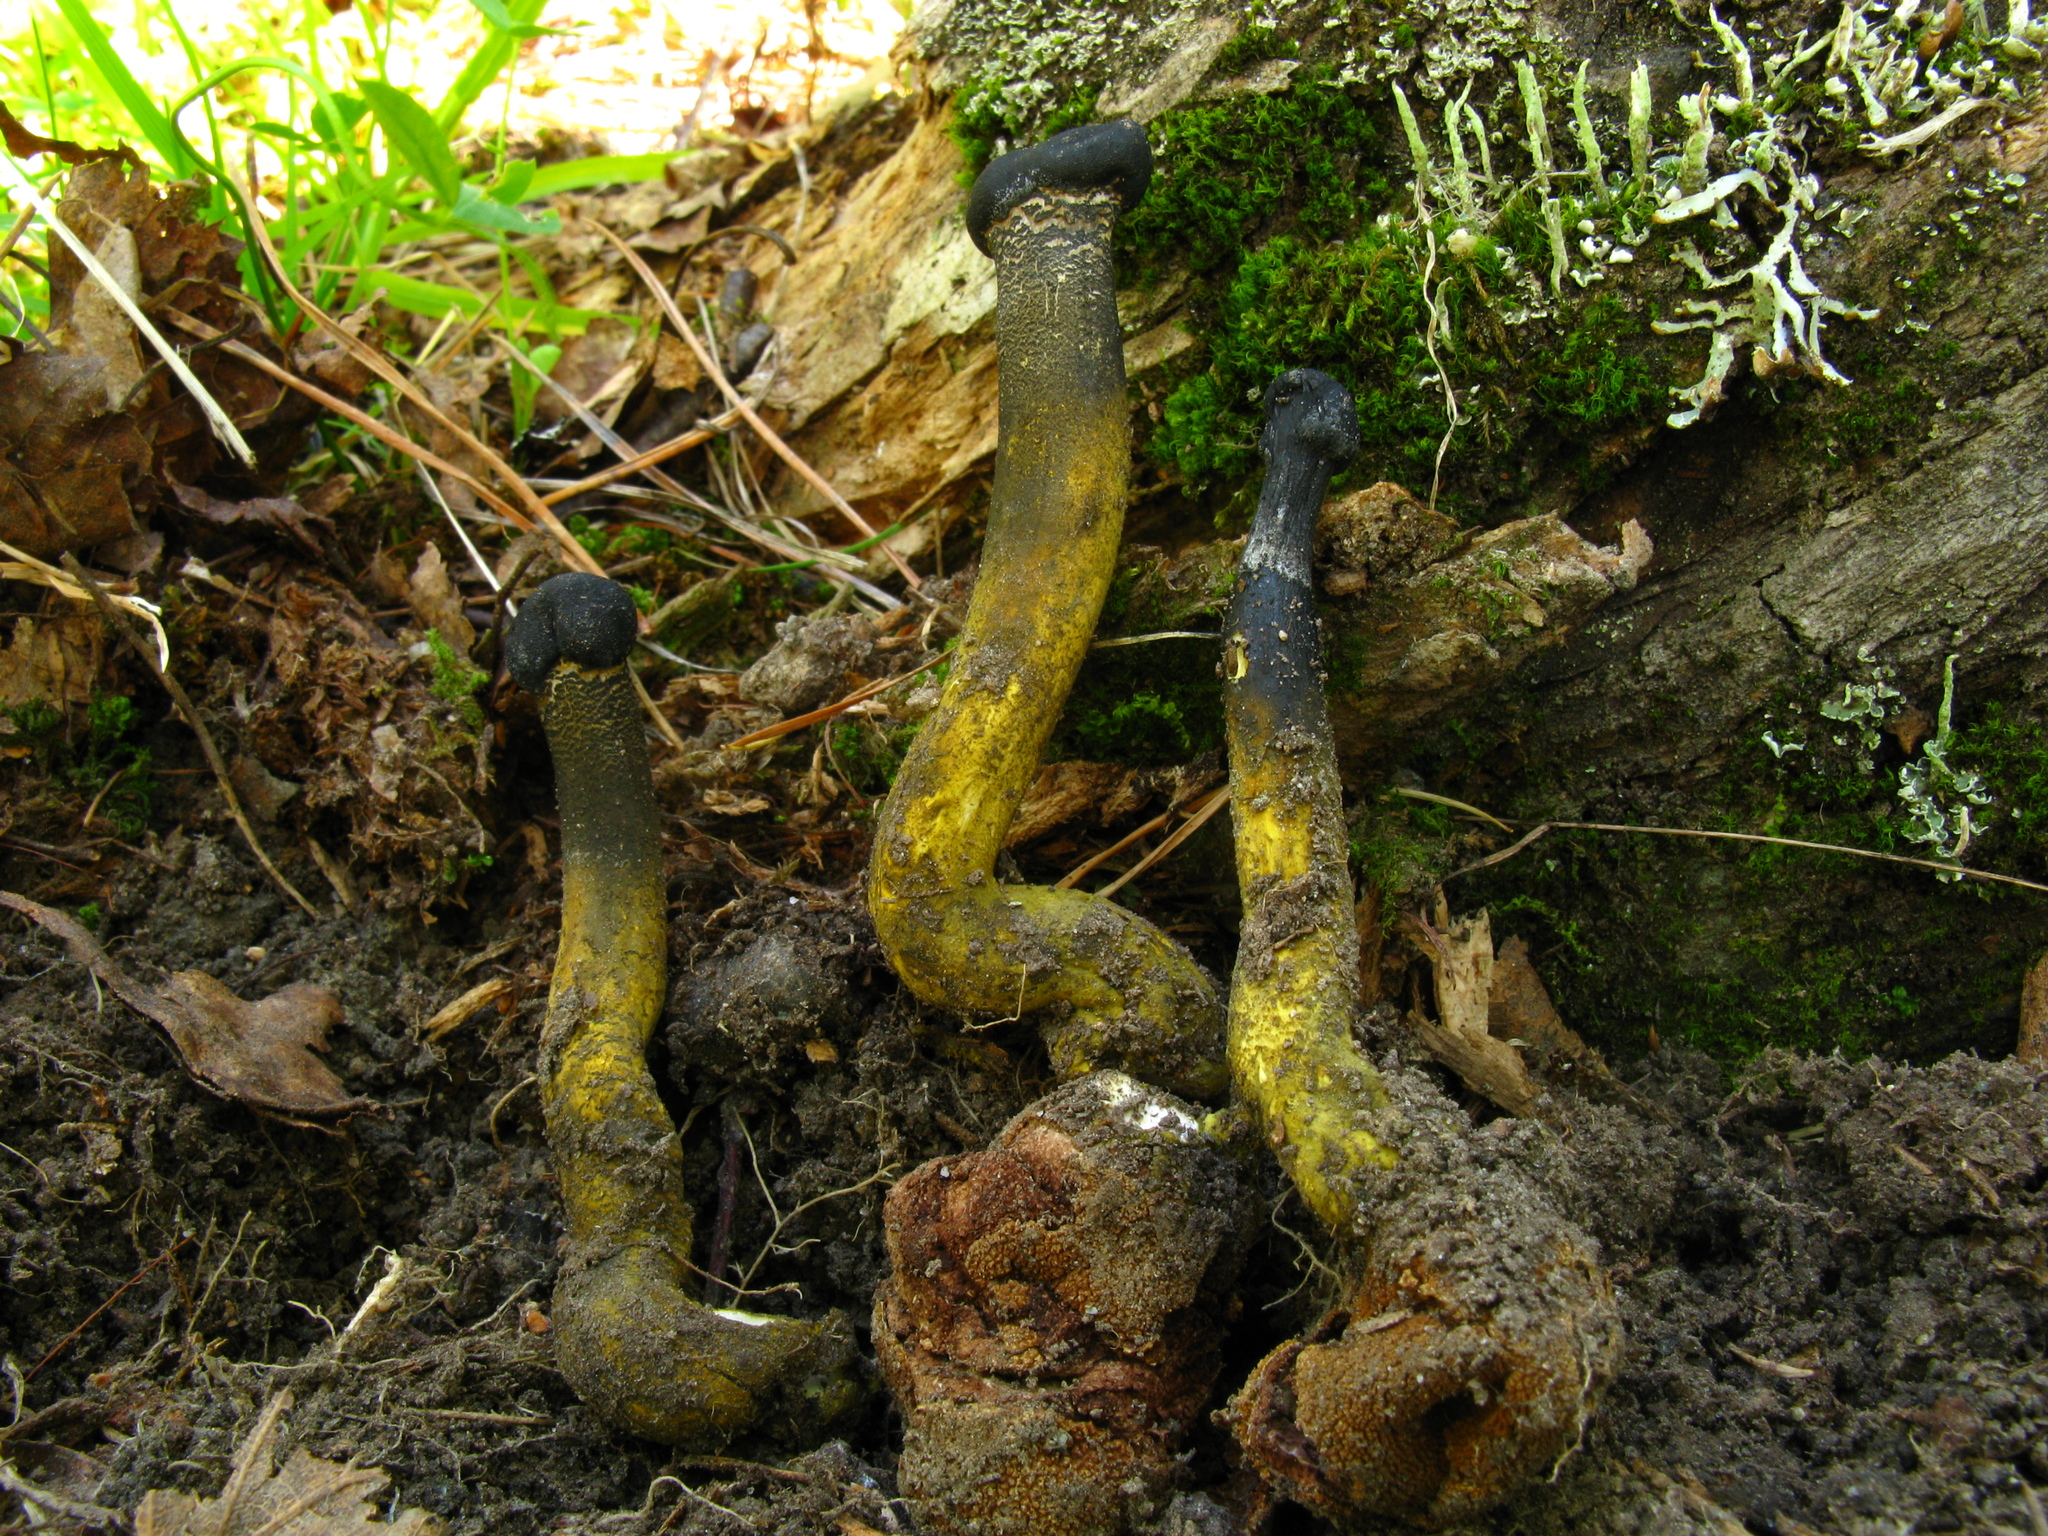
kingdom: Fungi
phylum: Ascomycota
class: Sordariomycetes
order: Hypocreales
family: Ophiocordycipitaceae
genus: Tolypocladium
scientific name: Tolypocladium capitatum
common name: Capitate truffleclub
